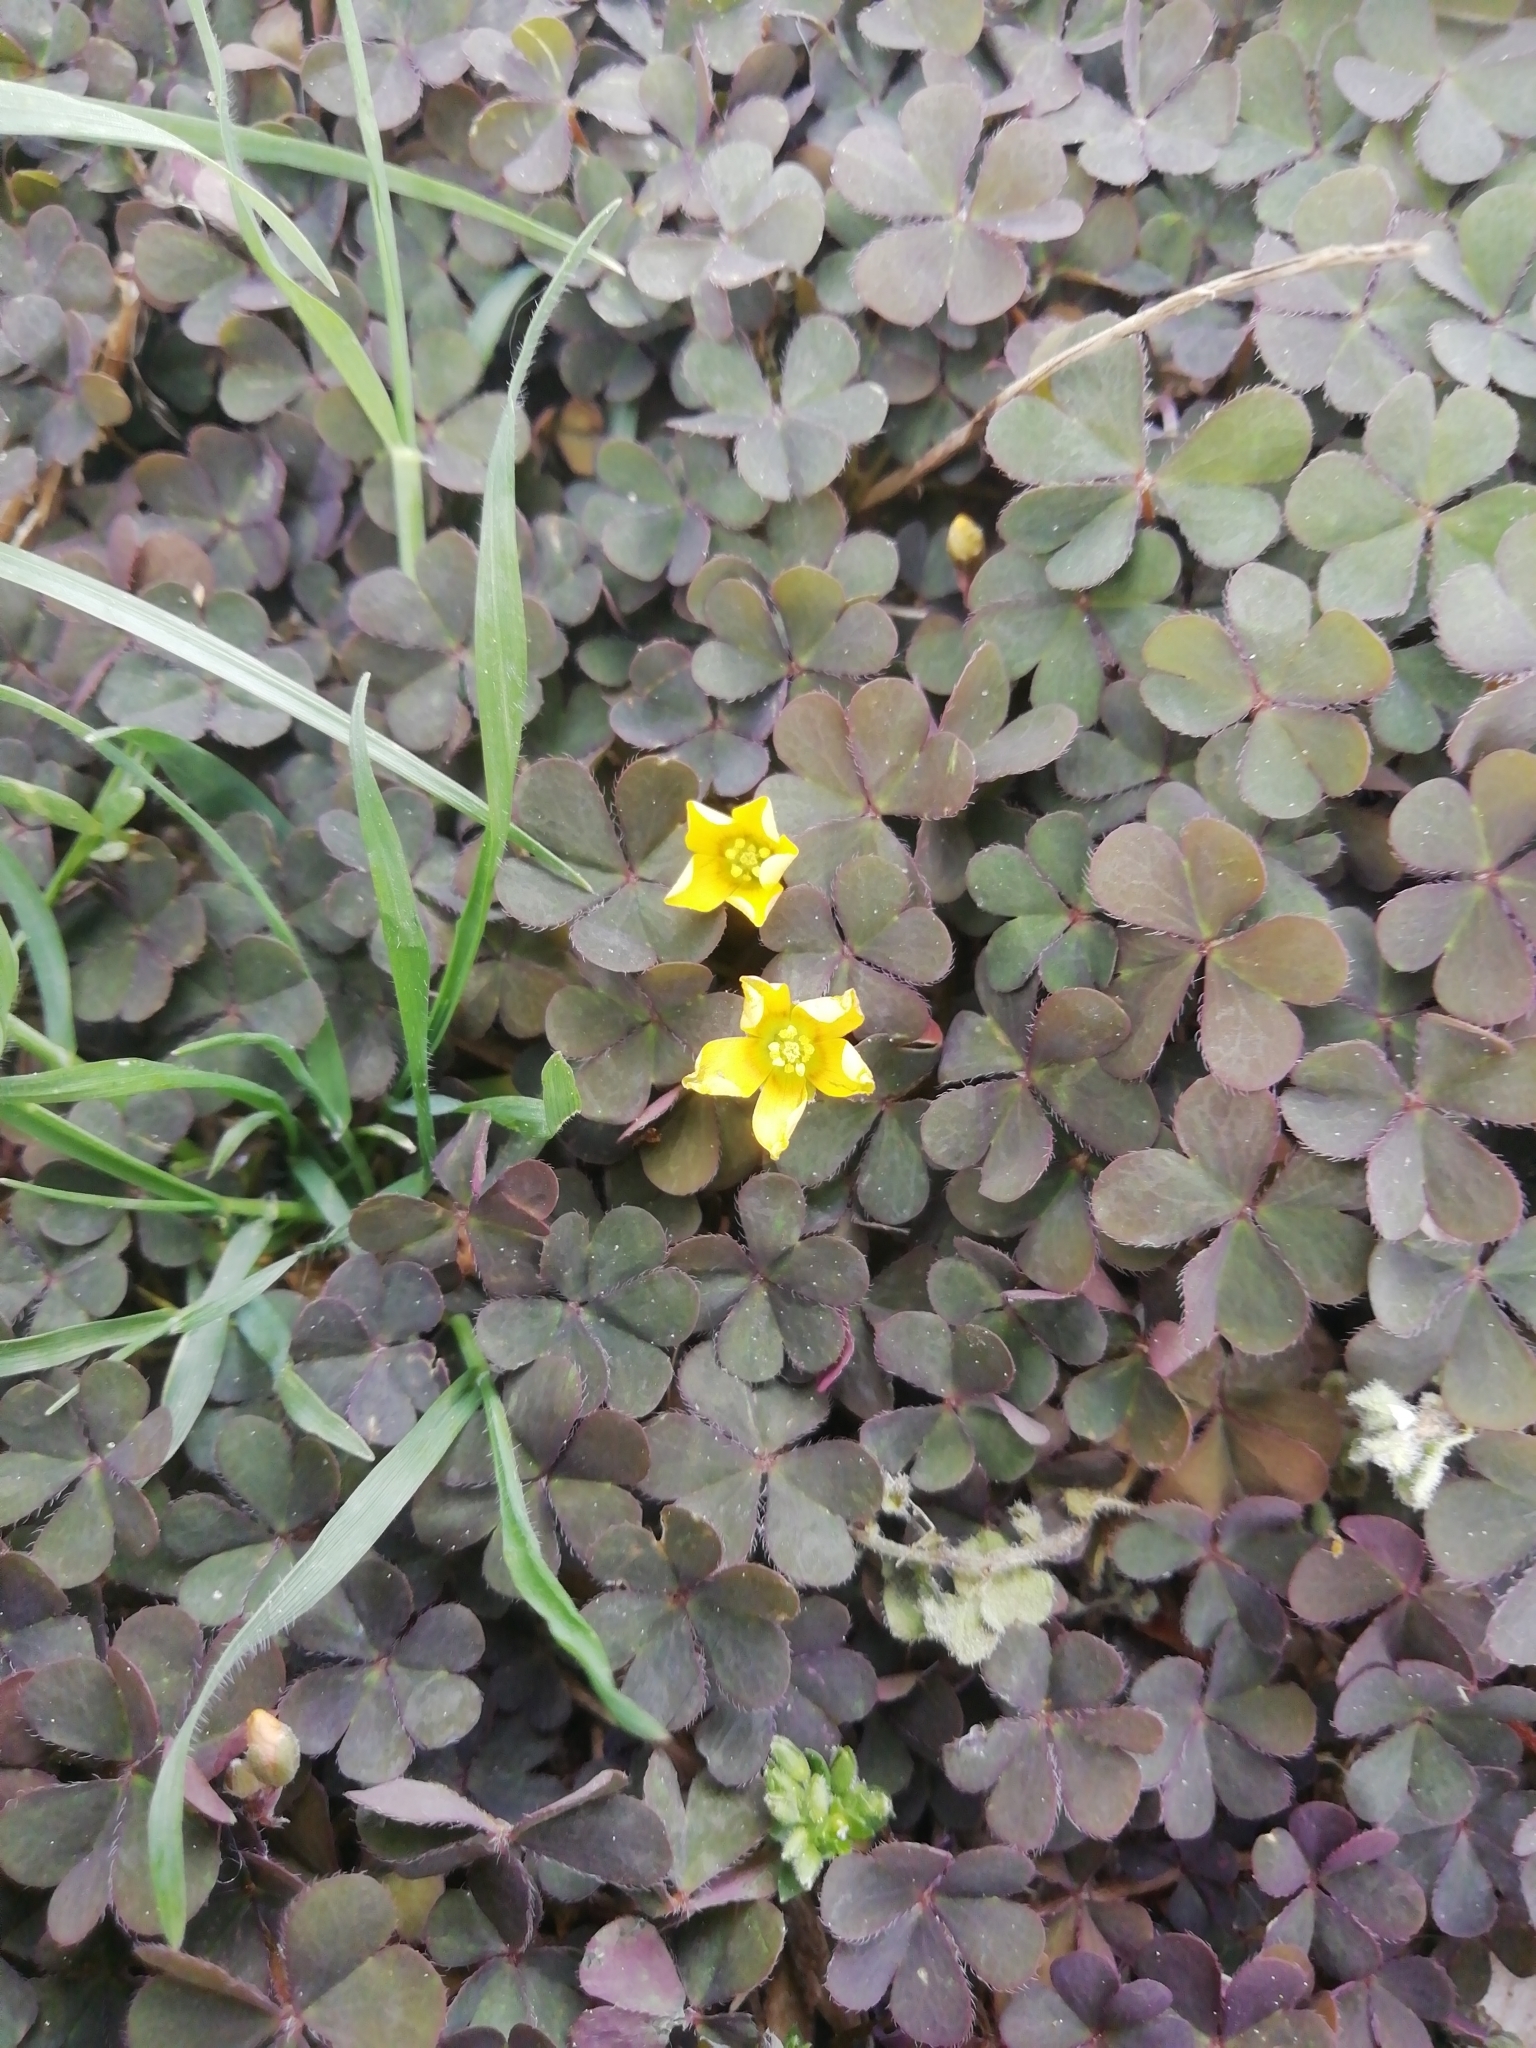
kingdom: Plantae
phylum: Tracheophyta
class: Magnoliopsida
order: Oxalidales
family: Oxalidaceae
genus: Oxalis
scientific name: Oxalis corniculata
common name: Procumbent yellow-sorrel
